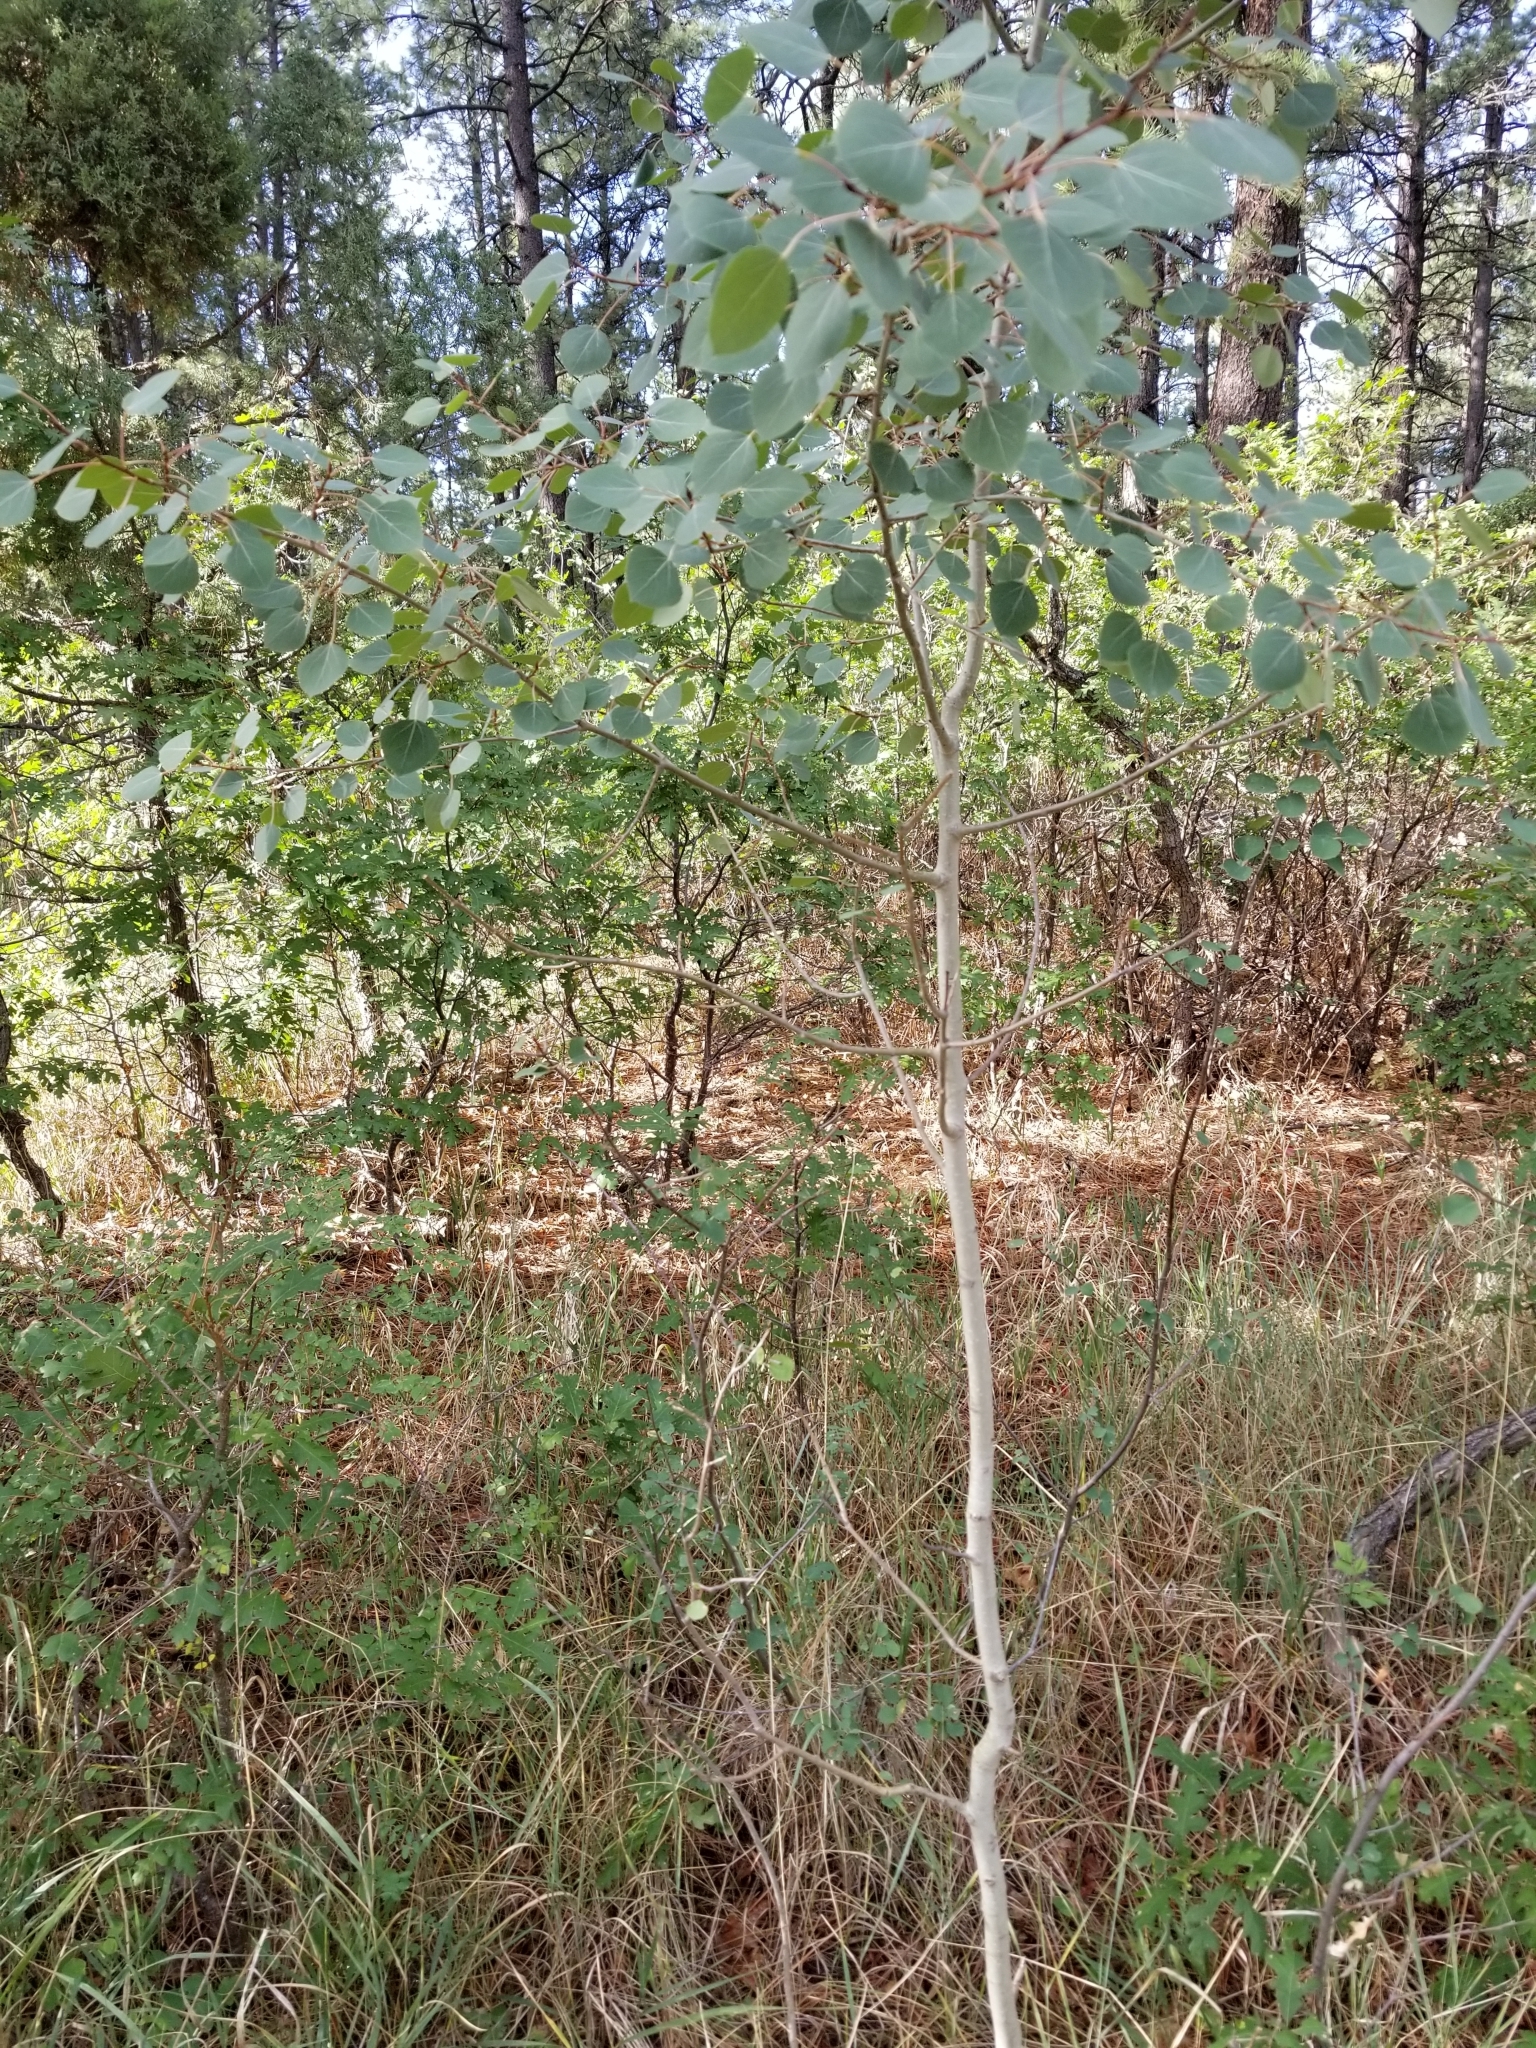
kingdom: Plantae
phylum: Tracheophyta
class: Magnoliopsida
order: Malpighiales
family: Salicaceae
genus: Populus
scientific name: Populus tremuloides
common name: Quaking aspen
